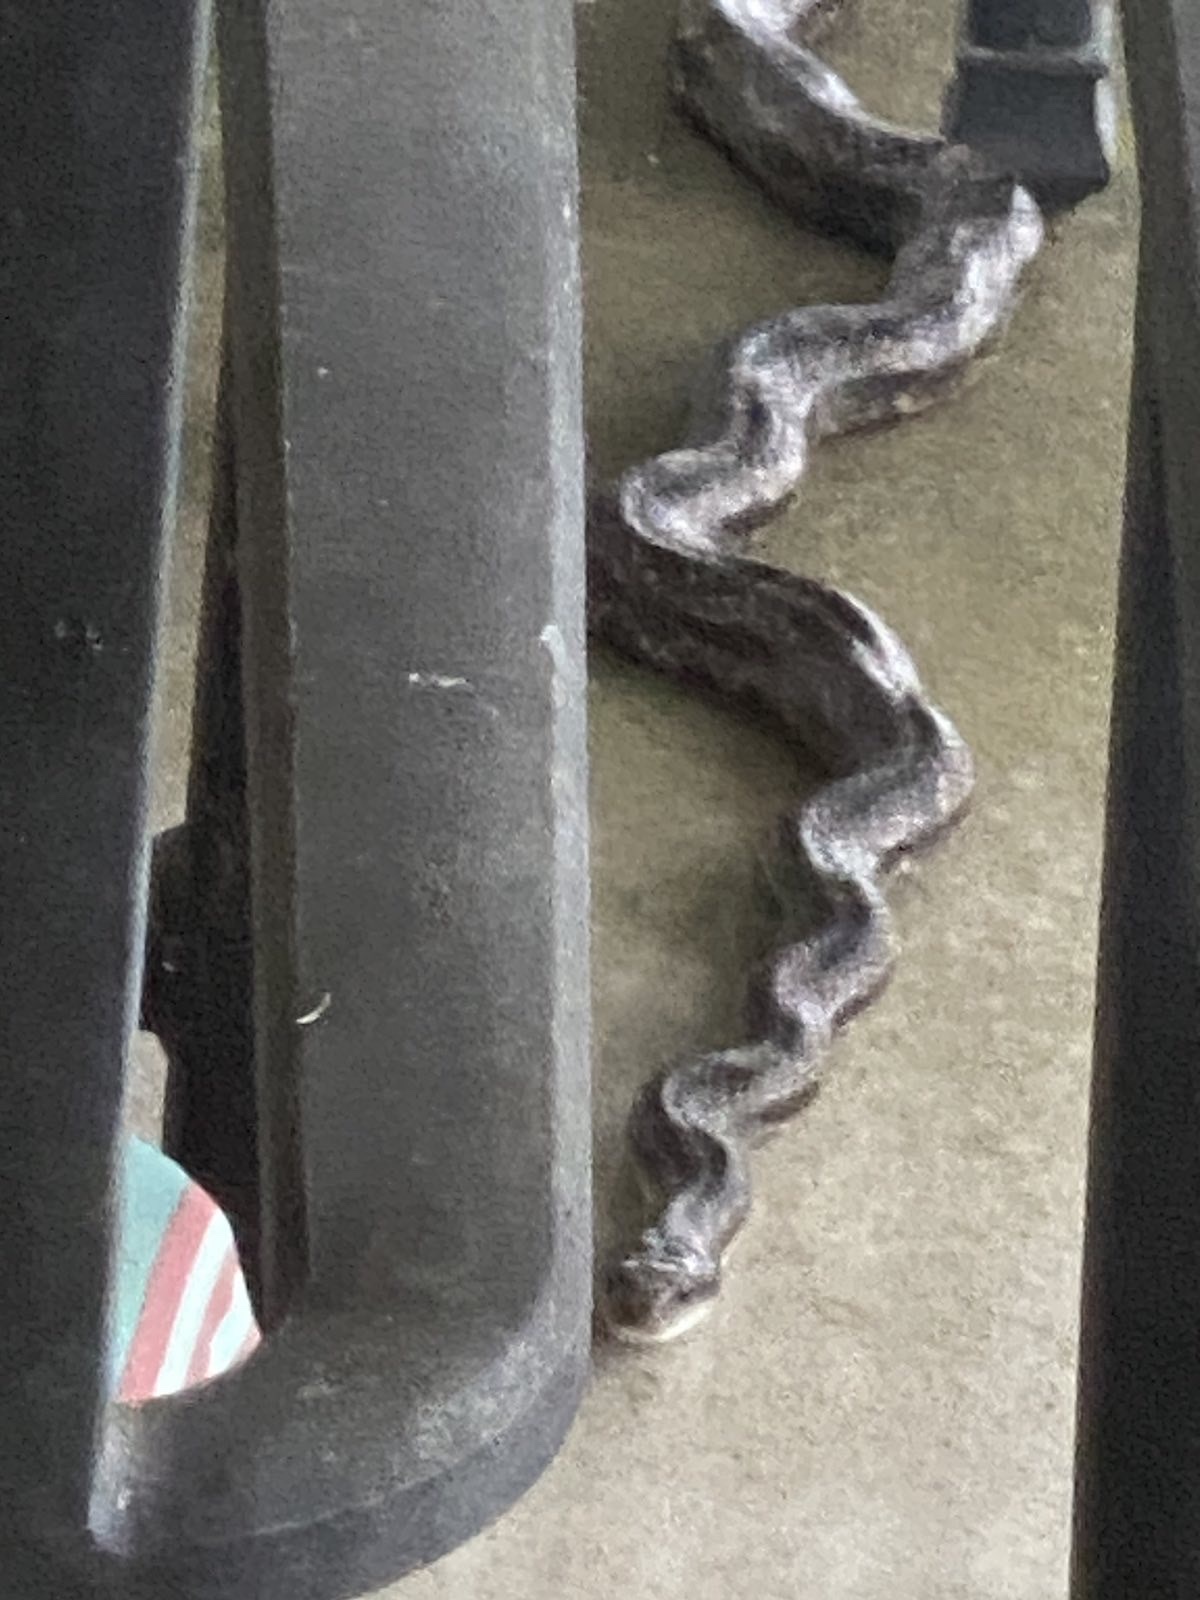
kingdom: Animalia
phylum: Chordata
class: Squamata
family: Colubridae
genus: Pantherophis
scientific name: Pantherophis obsoletus
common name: Black rat snake
